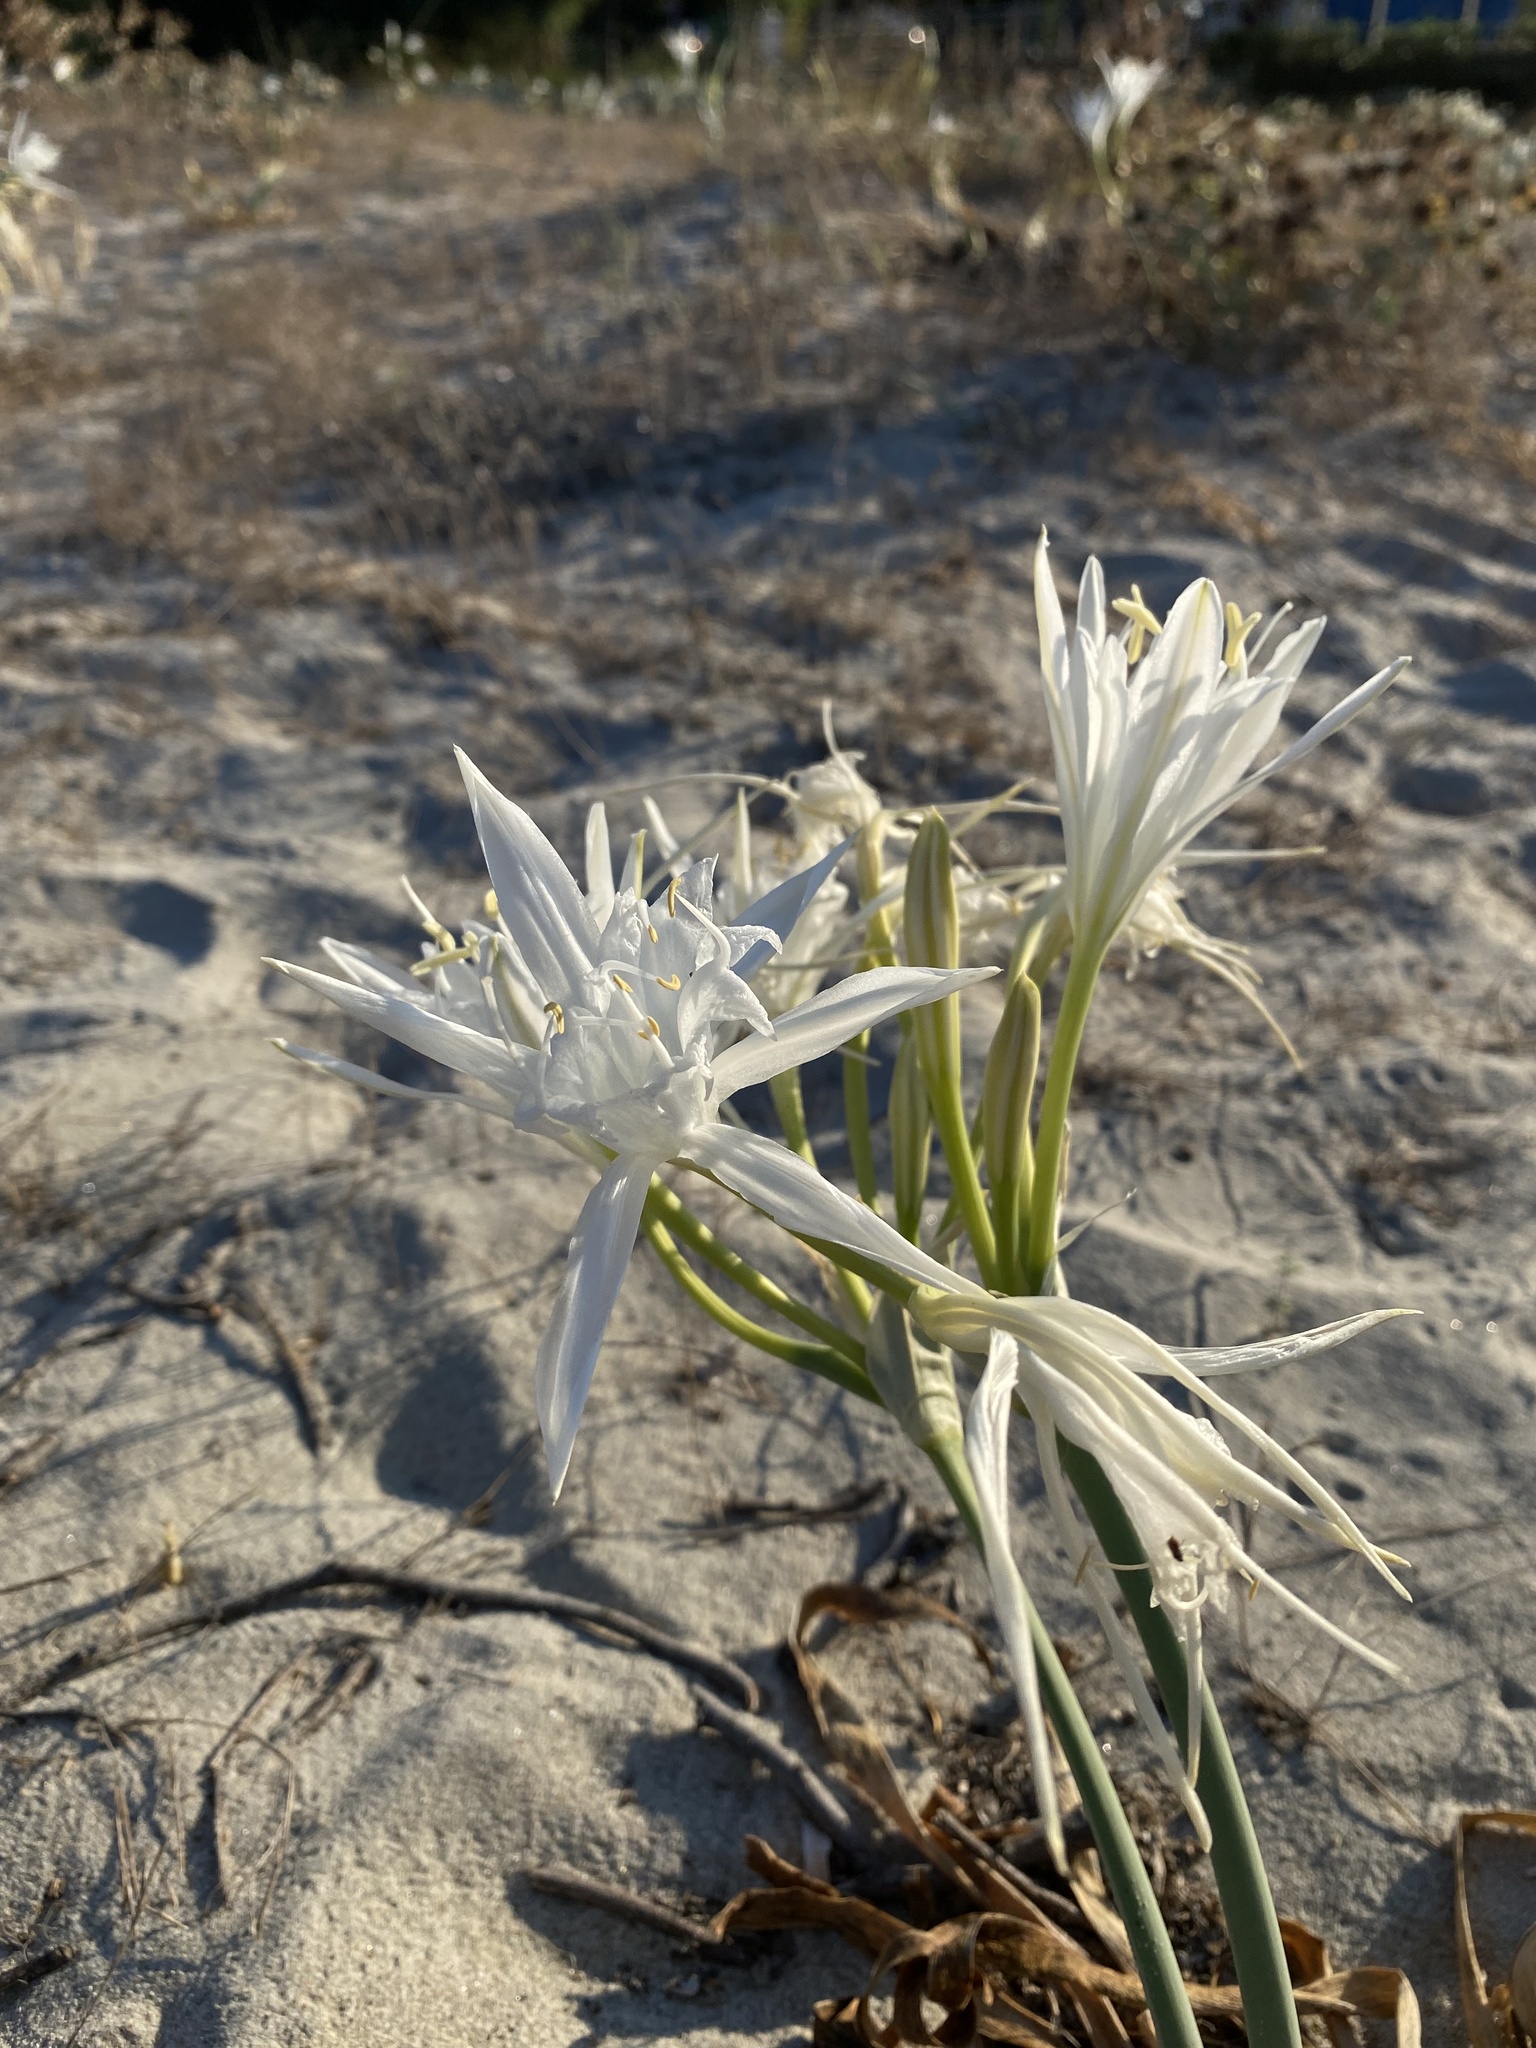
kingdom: Plantae
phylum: Tracheophyta
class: Liliopsida
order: Asparagales
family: Amaryllidaceae
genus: Pancratium
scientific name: Pancratium maritimum
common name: Sea-daffodil
